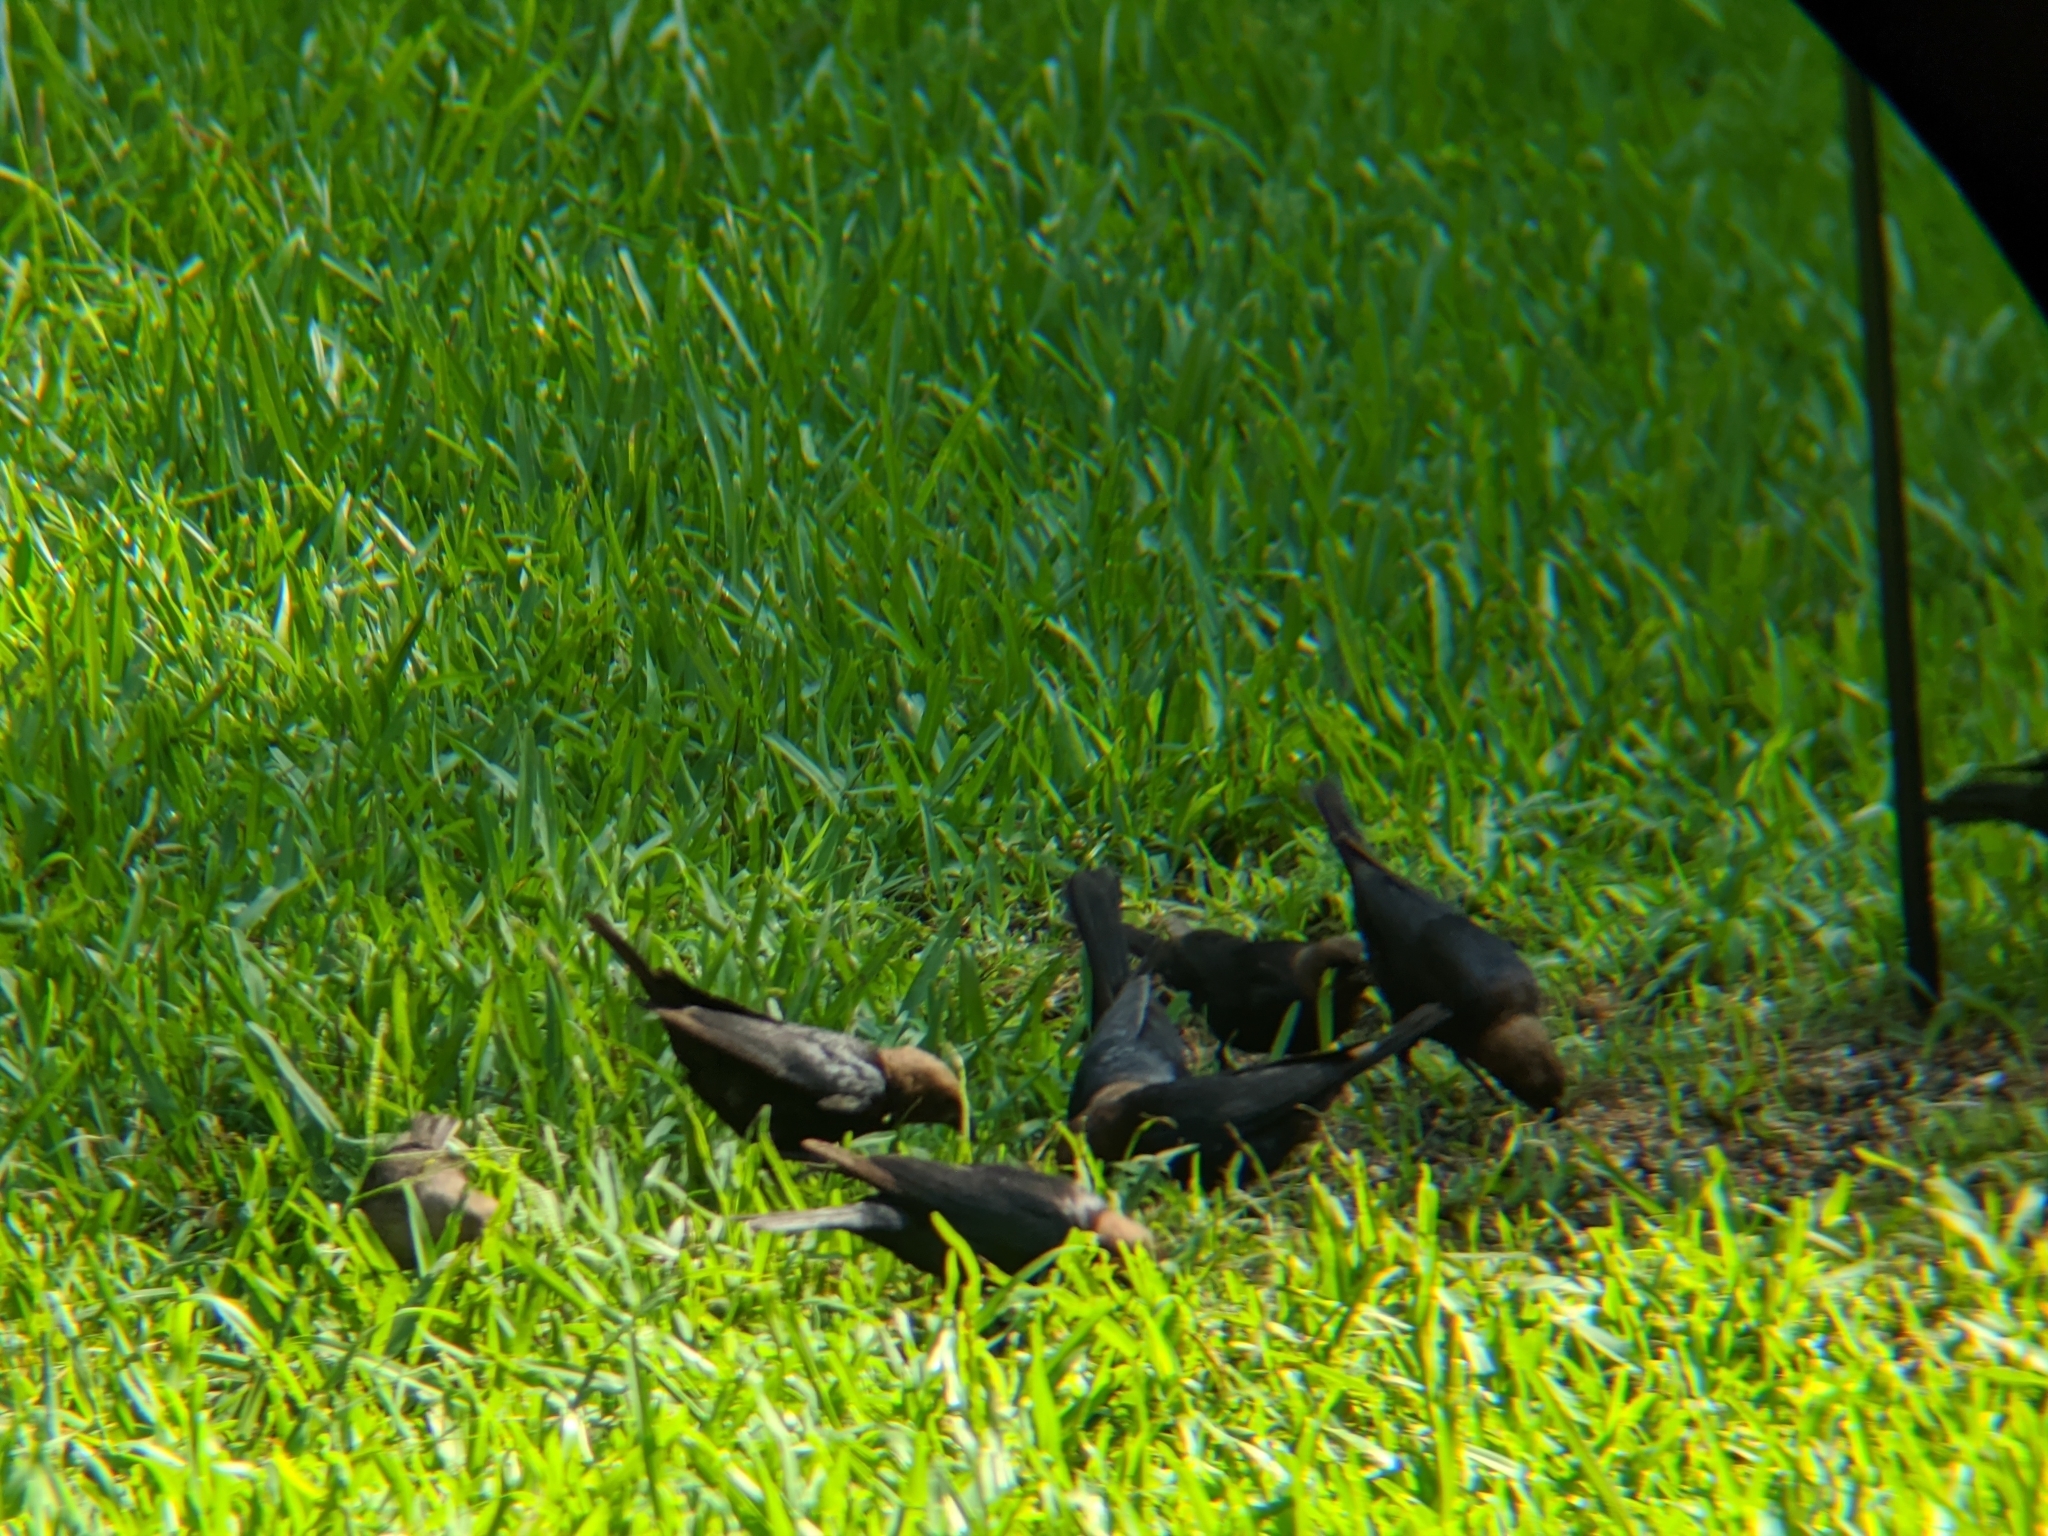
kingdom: Animalia
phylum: Chordata
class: Aves
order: Passeriformes
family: Icteridae
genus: Molothrus
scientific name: Molothrus ater
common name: Brown-headed cowbird
